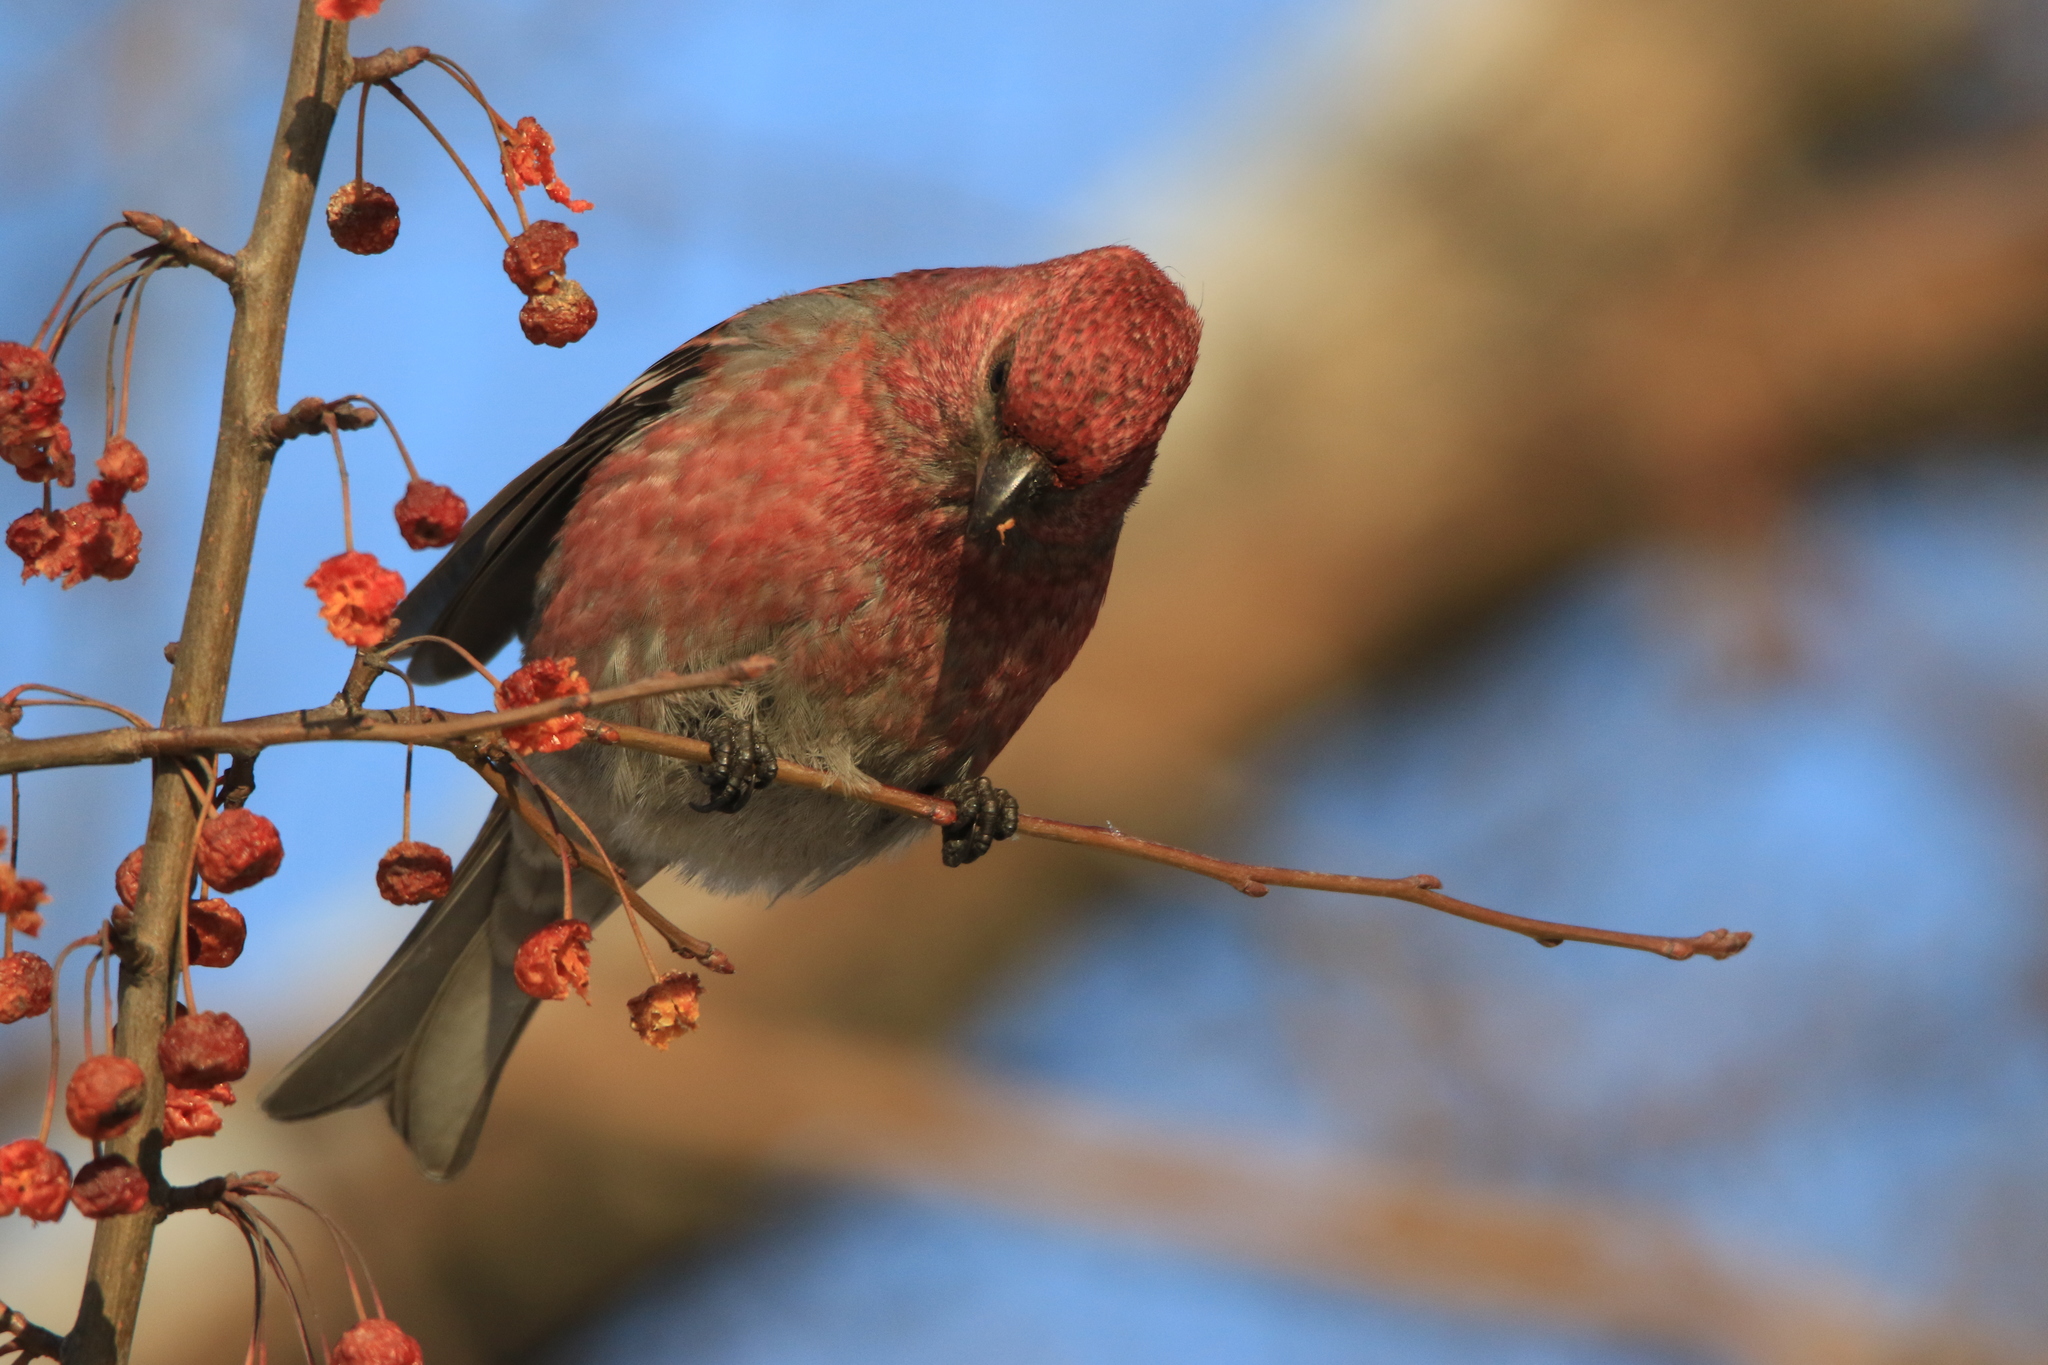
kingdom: Animalia
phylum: Chordata
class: Aves
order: Passeriformes
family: Fringillidae
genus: Pinicola
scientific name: Pinicola enucleator
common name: Pine grosbeak
